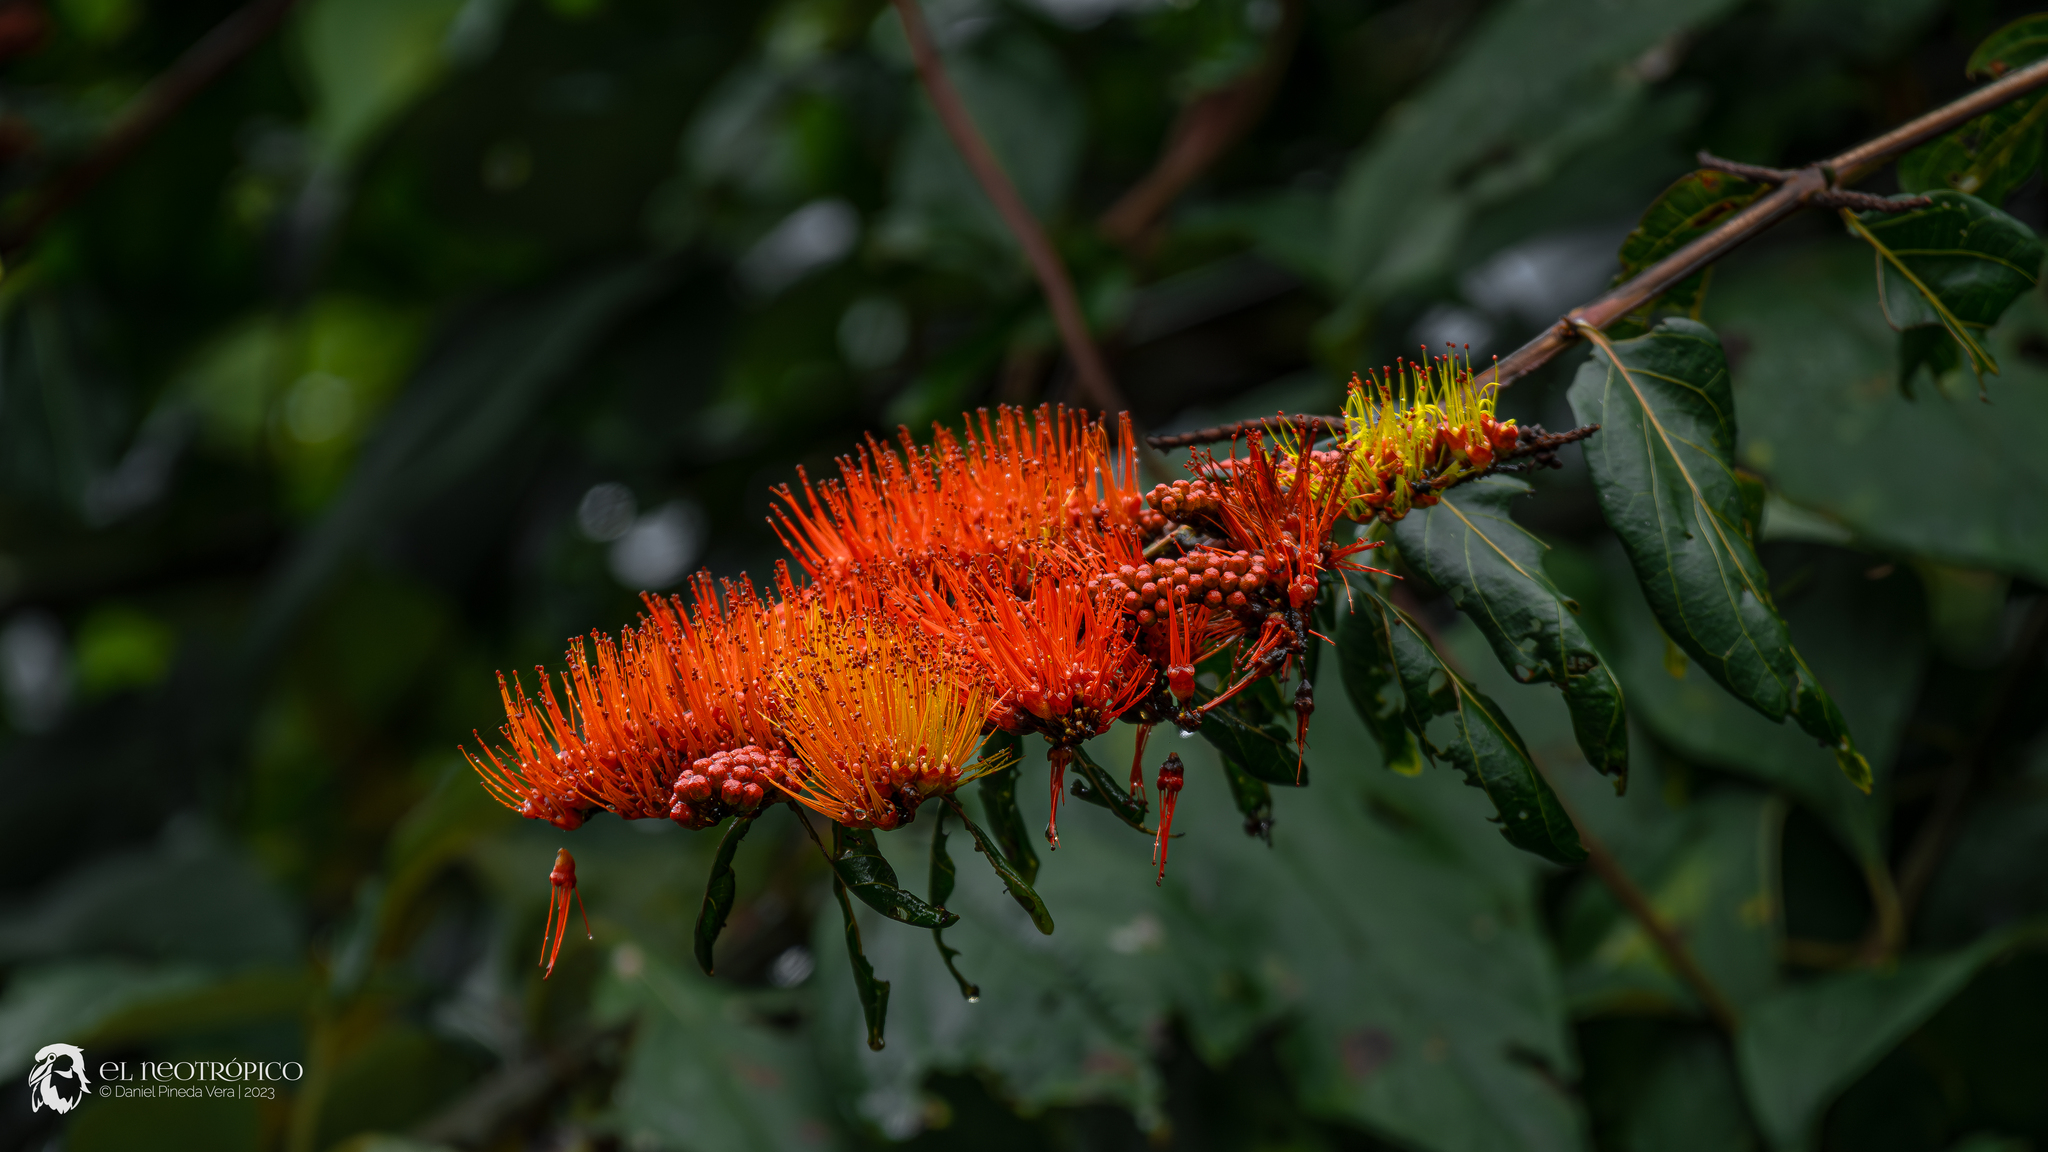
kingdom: Plantae
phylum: Tracheophyta
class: Magnoliopsida
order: Myrtales
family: Combretaceae
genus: Combretum
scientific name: Combretum farinosum
